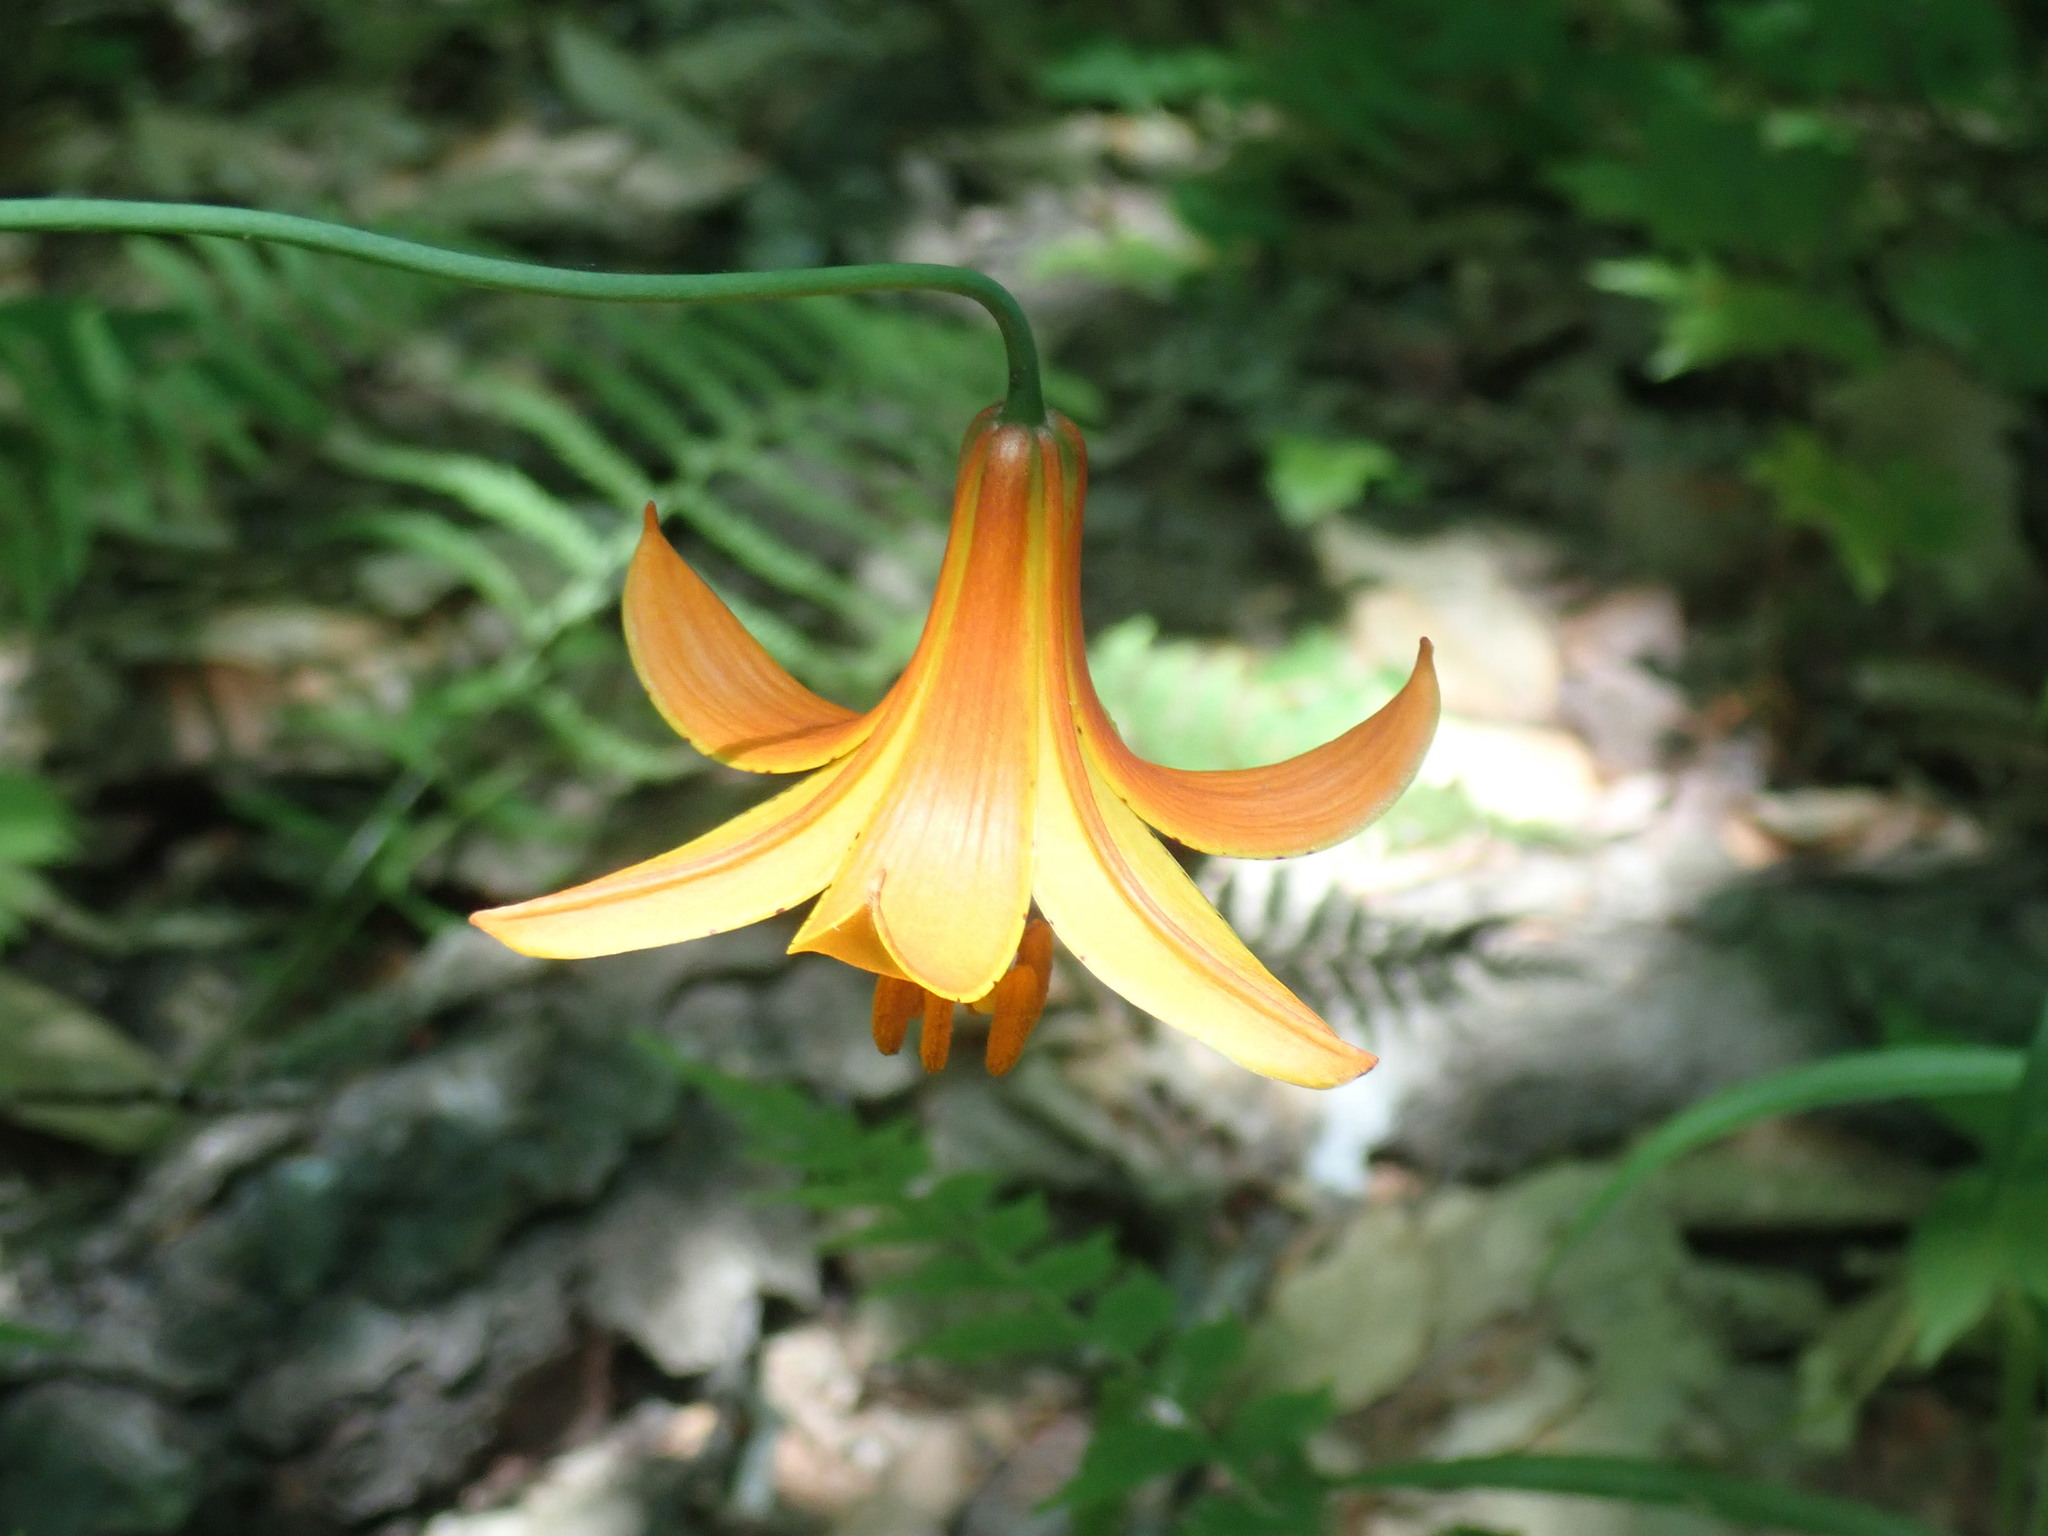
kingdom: Plantae
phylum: Tracheophyta
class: Liliopsida
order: Liliales
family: Liliaceae
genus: Lilium
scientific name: Lilium canadense
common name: Canada lily
